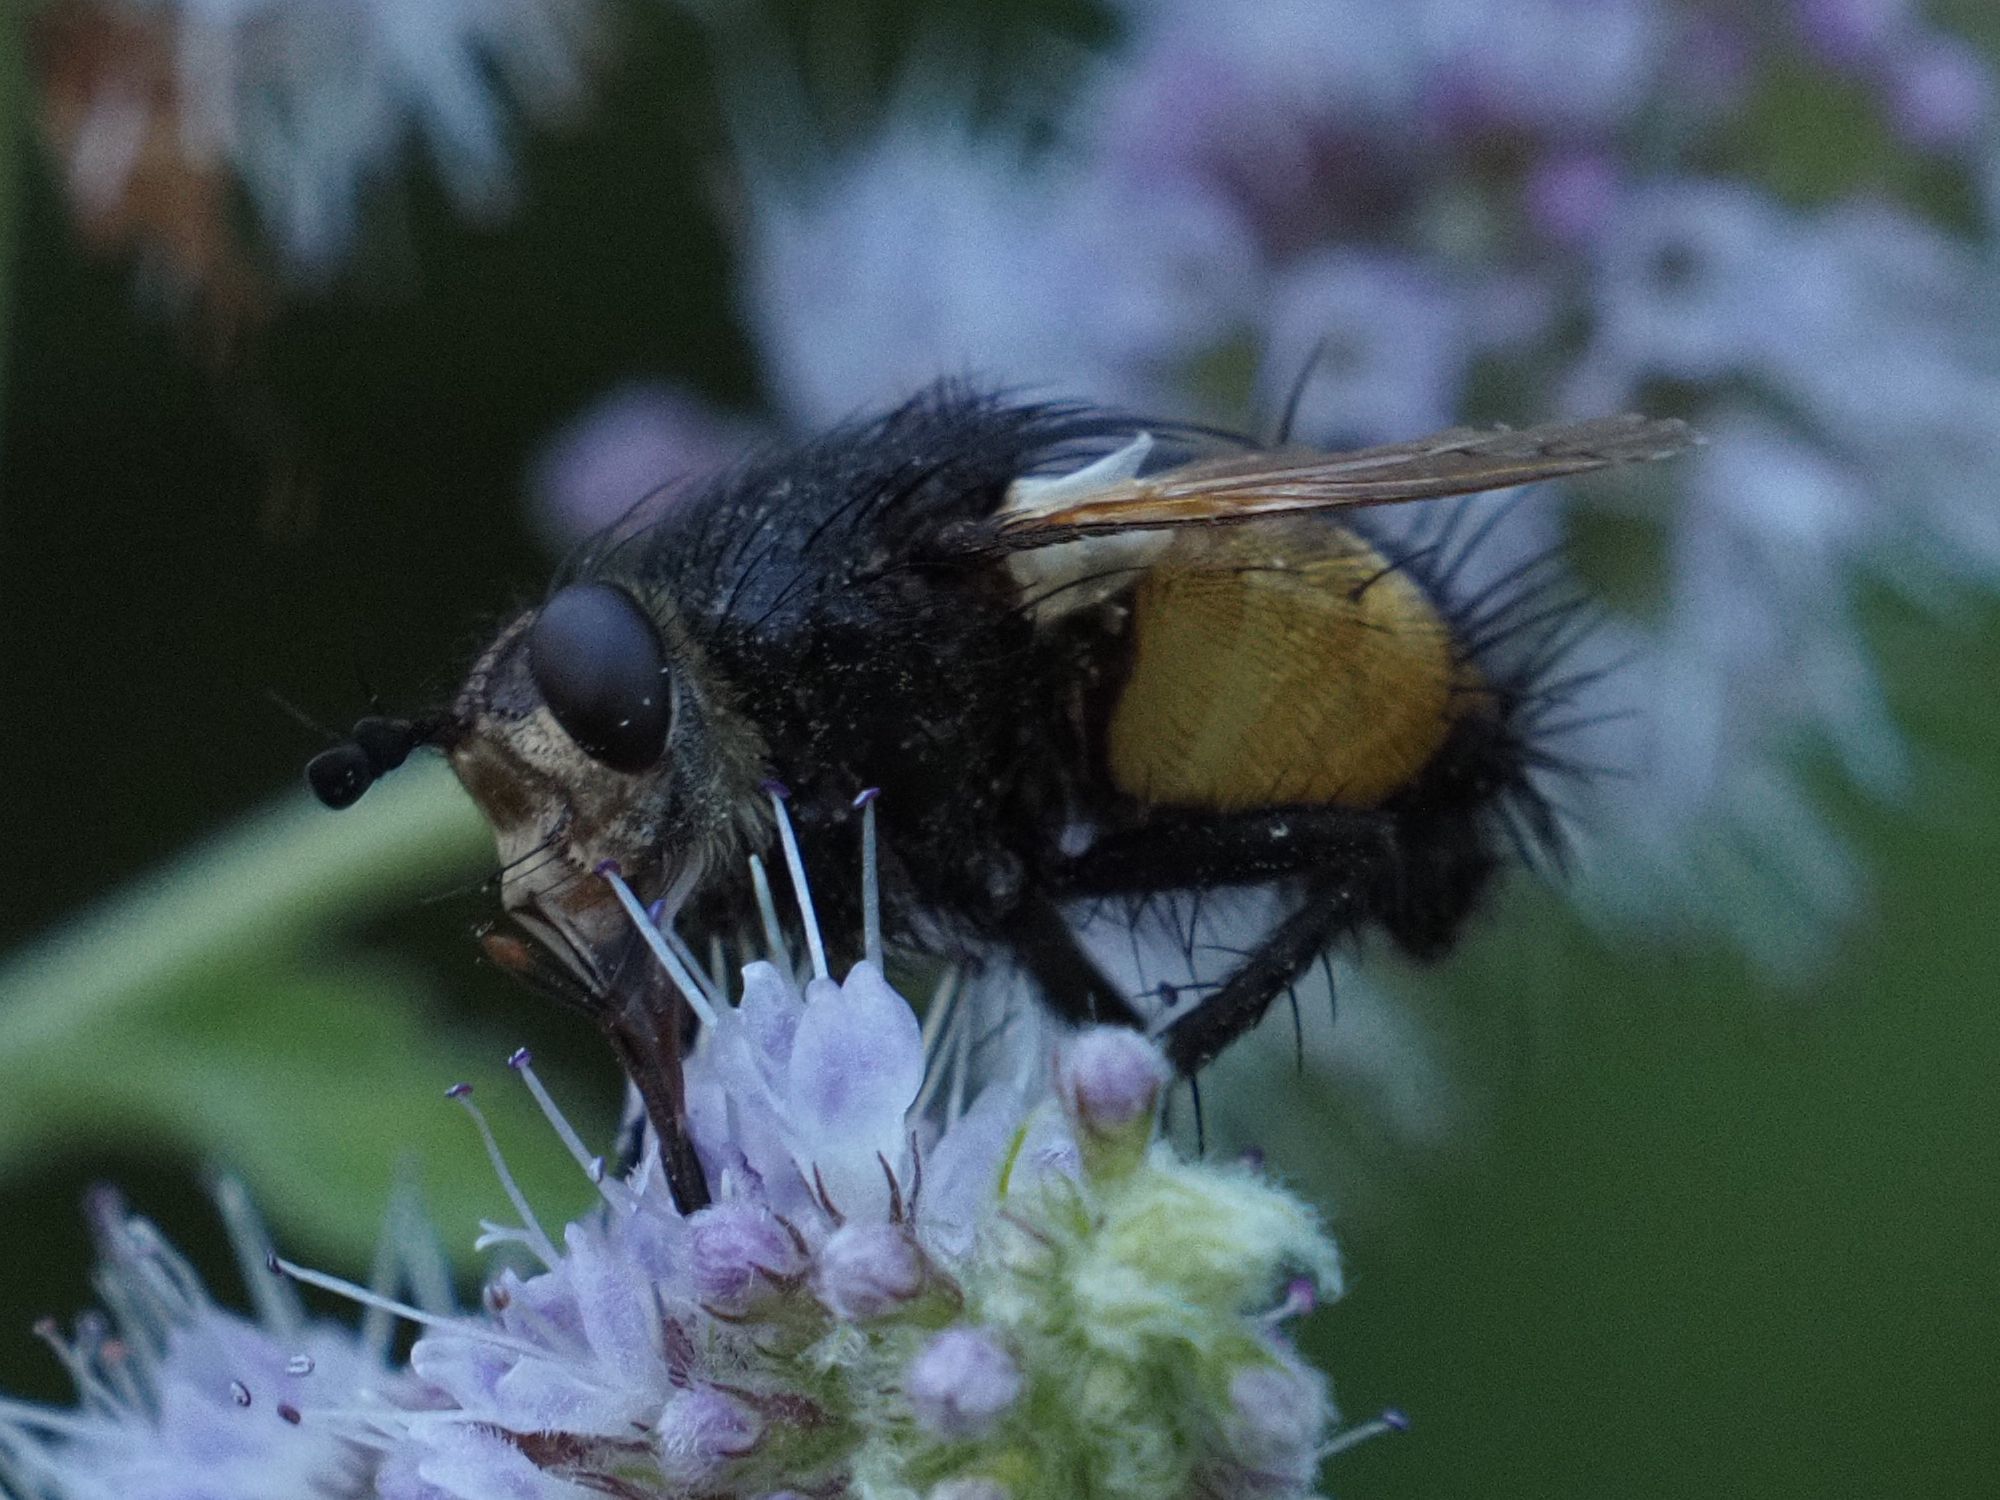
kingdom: Animalia
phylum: Arthropoda
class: Insecta
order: Diptera
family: Tachinidae
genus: Nowickia
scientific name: Nowickia ferox
